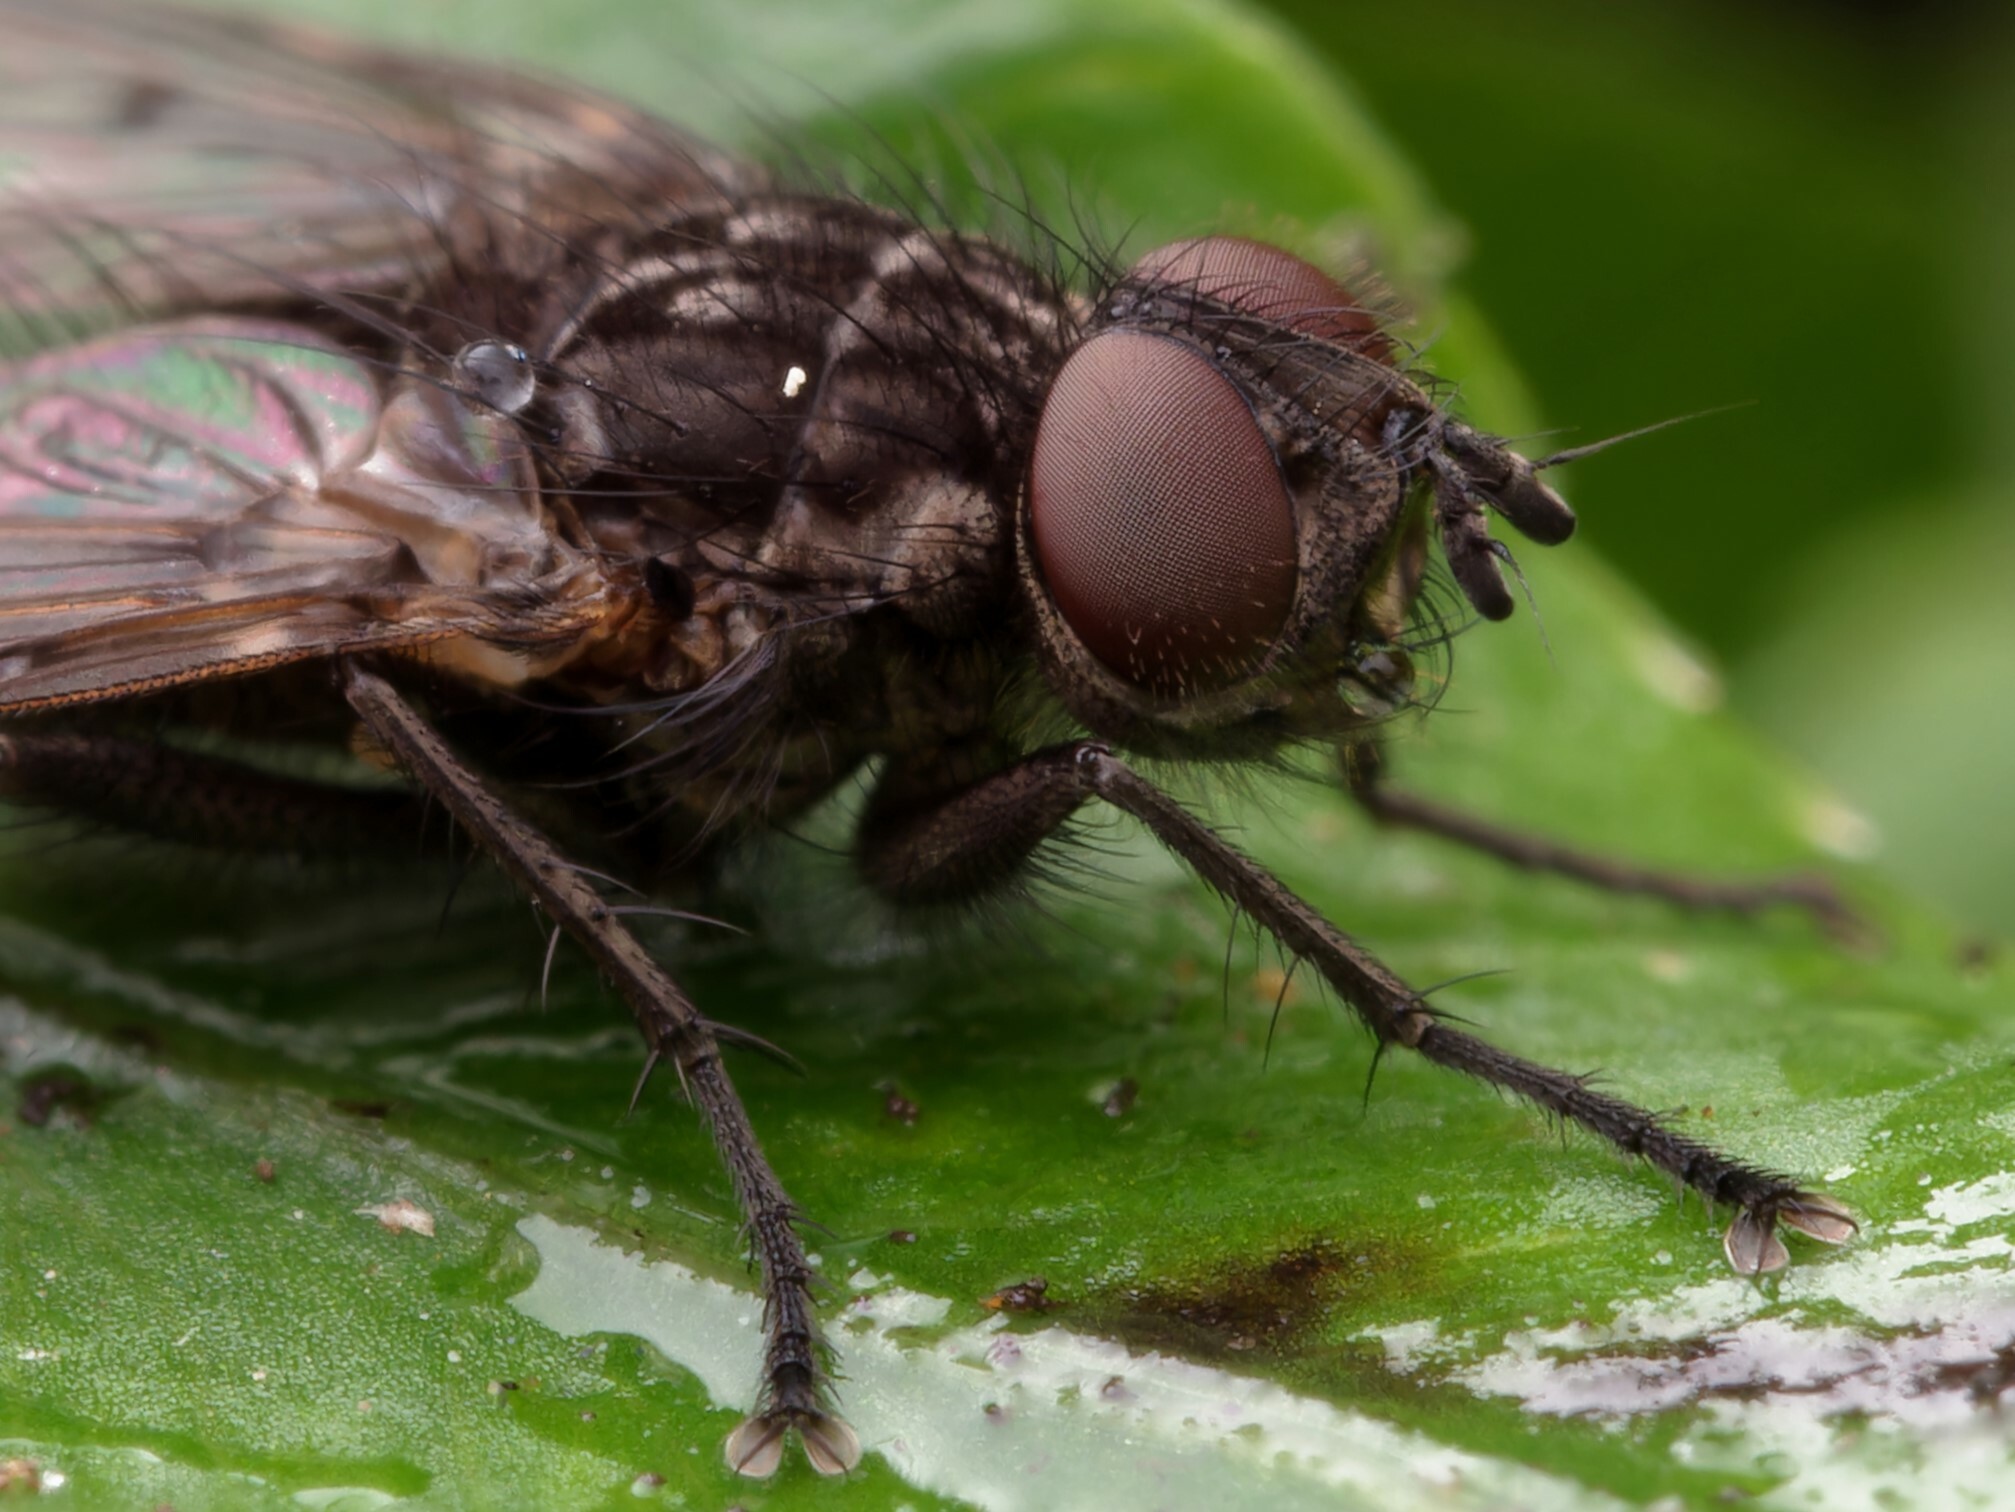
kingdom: Animalia
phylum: Arthropoda
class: Insecta
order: Diptera
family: Tachinidae
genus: Mallochomacquartia
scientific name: Mallochomacquartia vexata
